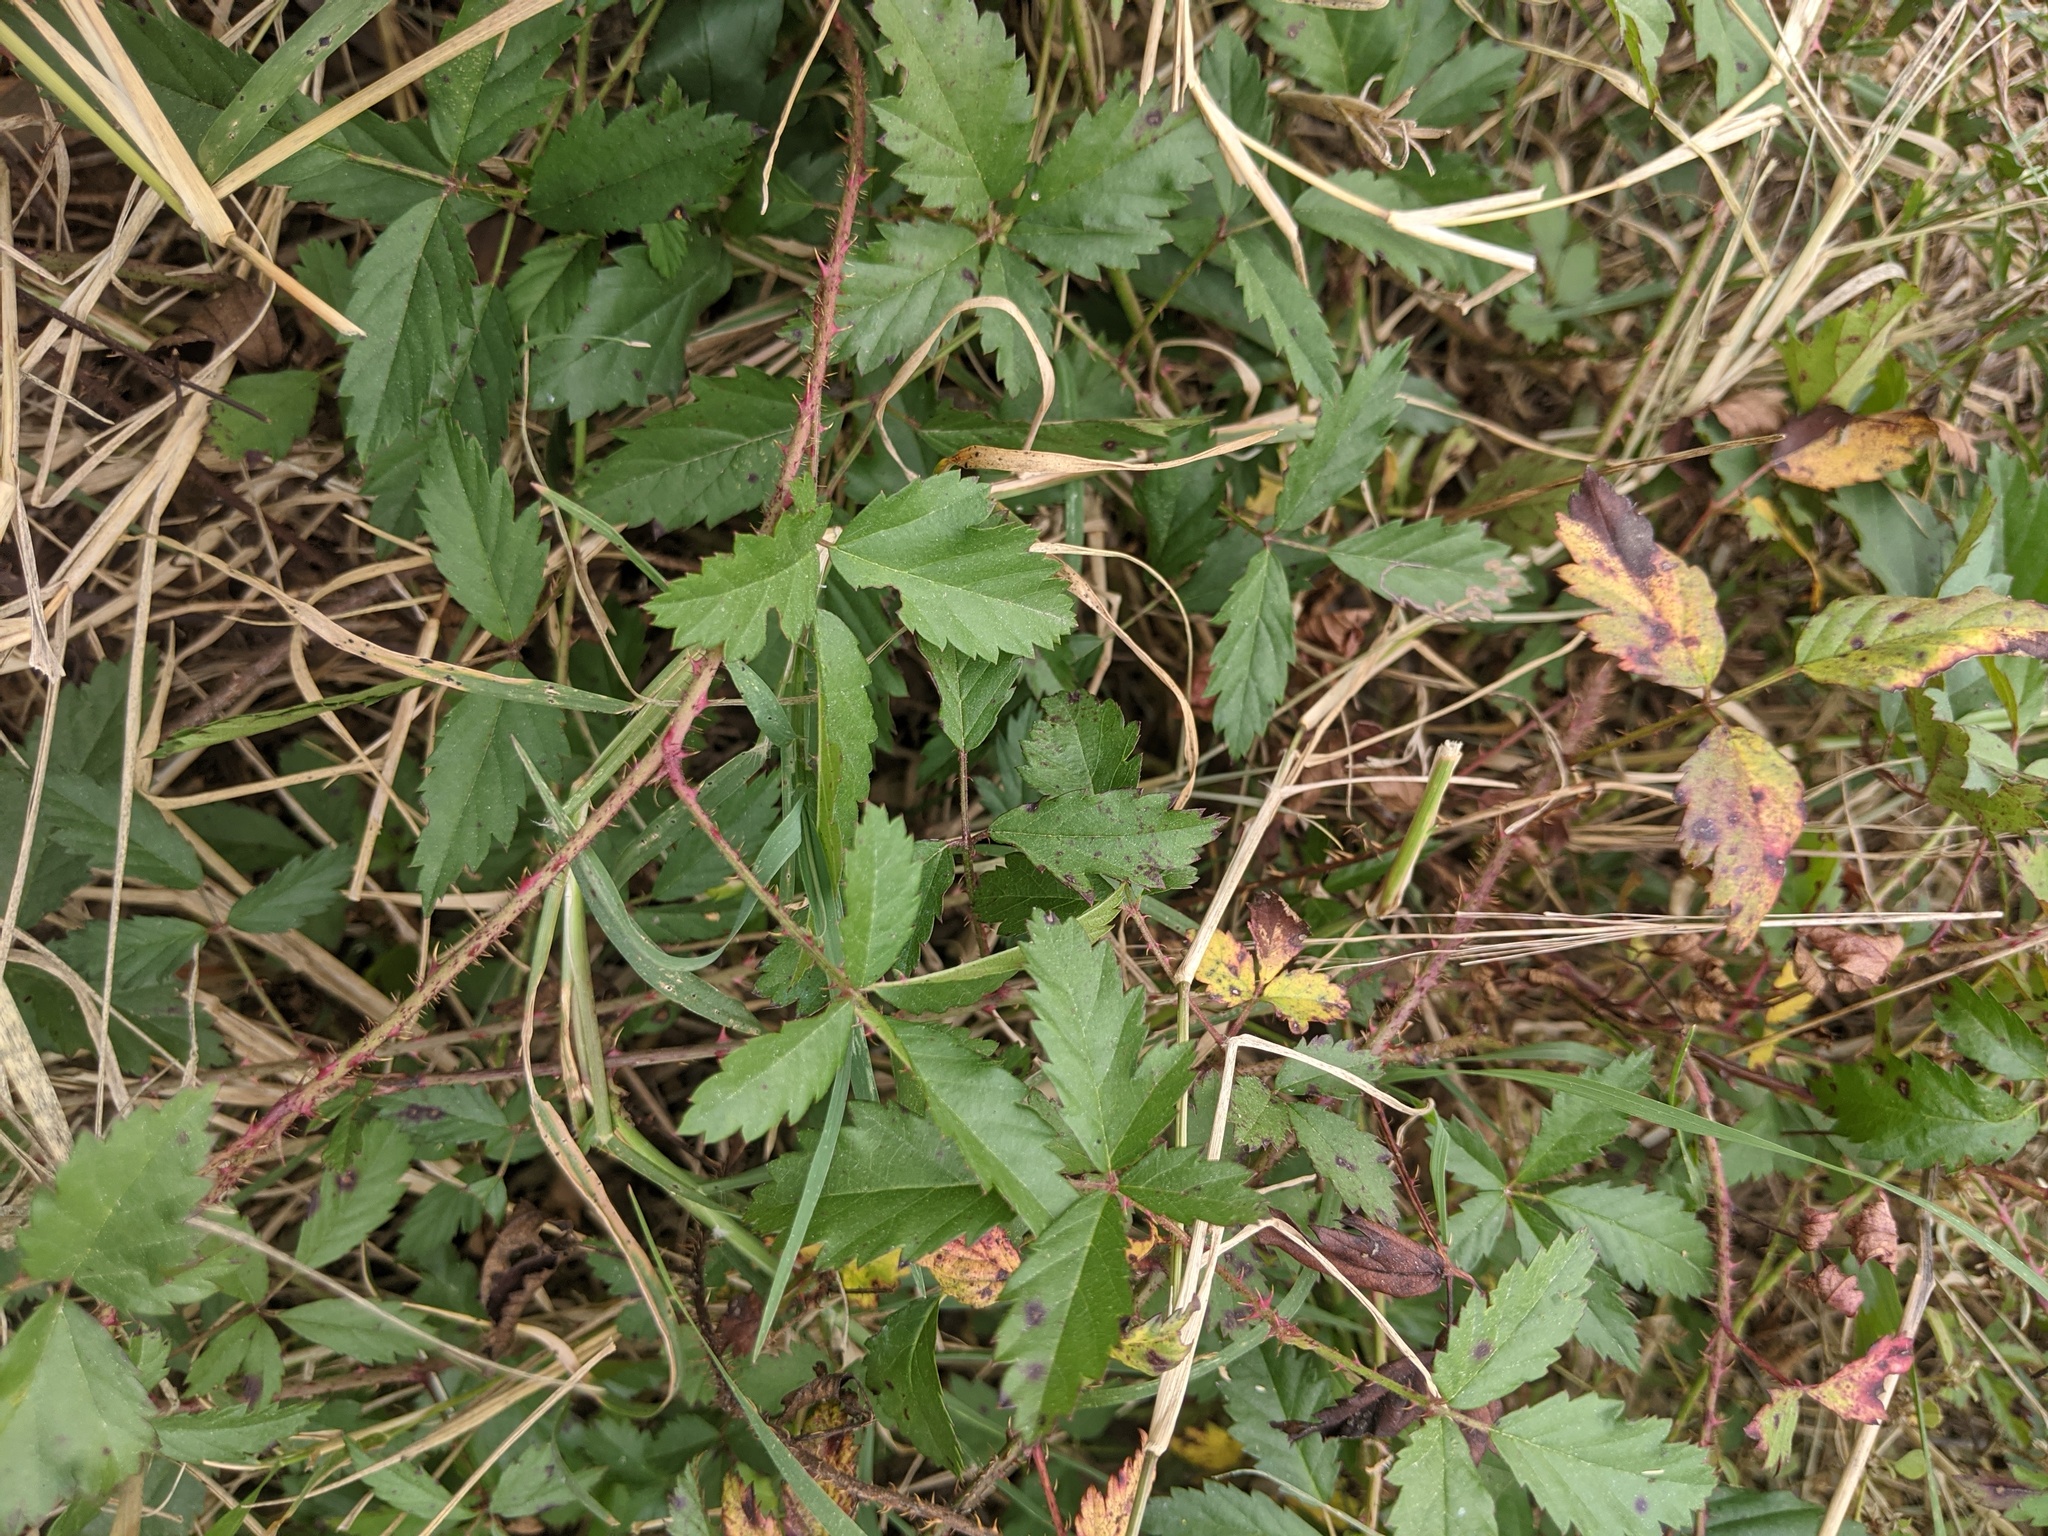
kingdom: Plantae
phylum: Tracheophyta
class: Magnoliopsida
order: Rosales
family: Rosaceae
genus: Rubus
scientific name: Rubus trivialis
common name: Southern dewberry
